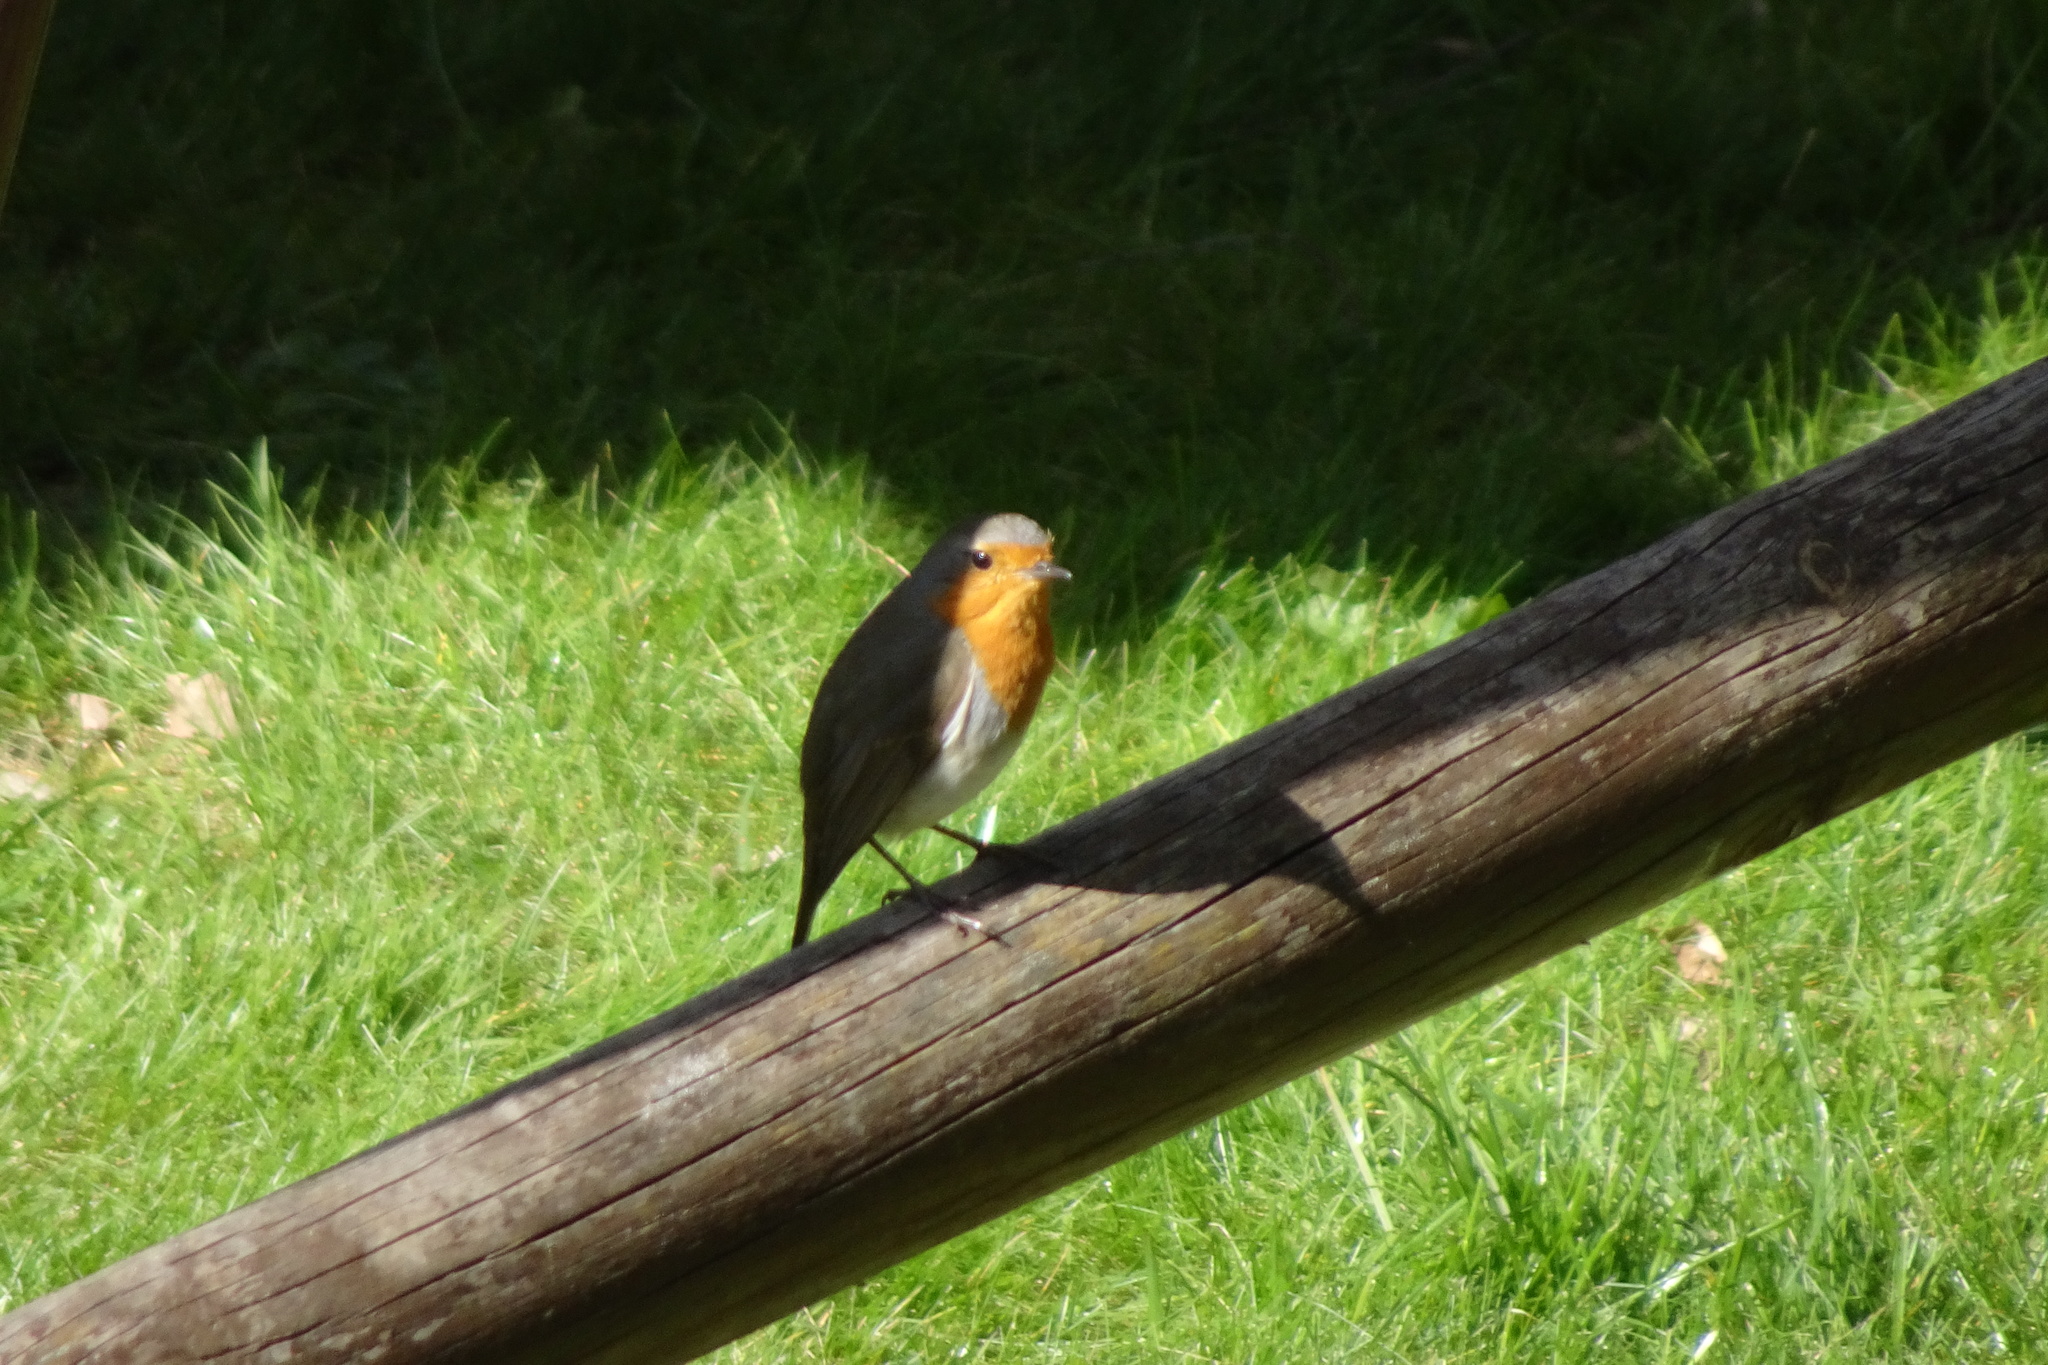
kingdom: Animalia
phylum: Chordata
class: Aves
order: Passeriformes
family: Muscicapidae
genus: Erithacus
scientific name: Erithacus rubecula
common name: European robin
